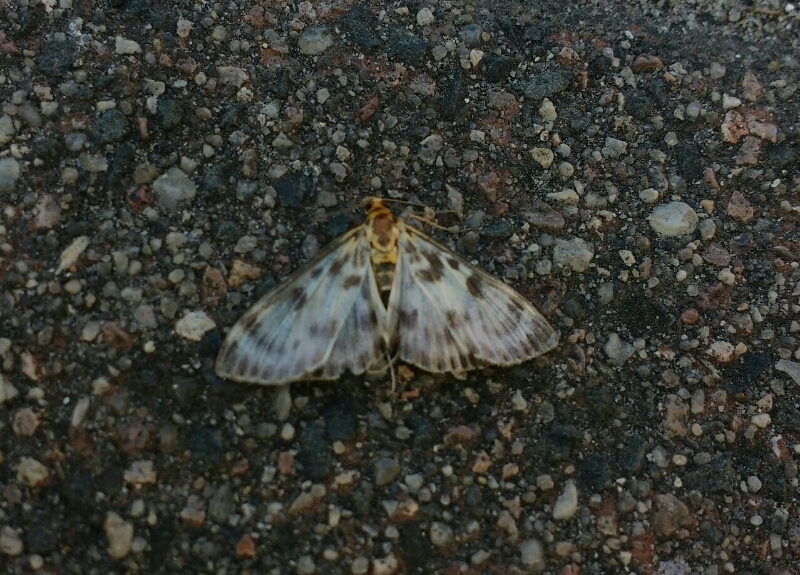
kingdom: Animalia
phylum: Arthropoda
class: Insecta
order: Lepidoptera
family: Crambidae
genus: Anania
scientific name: Anania hortulata
